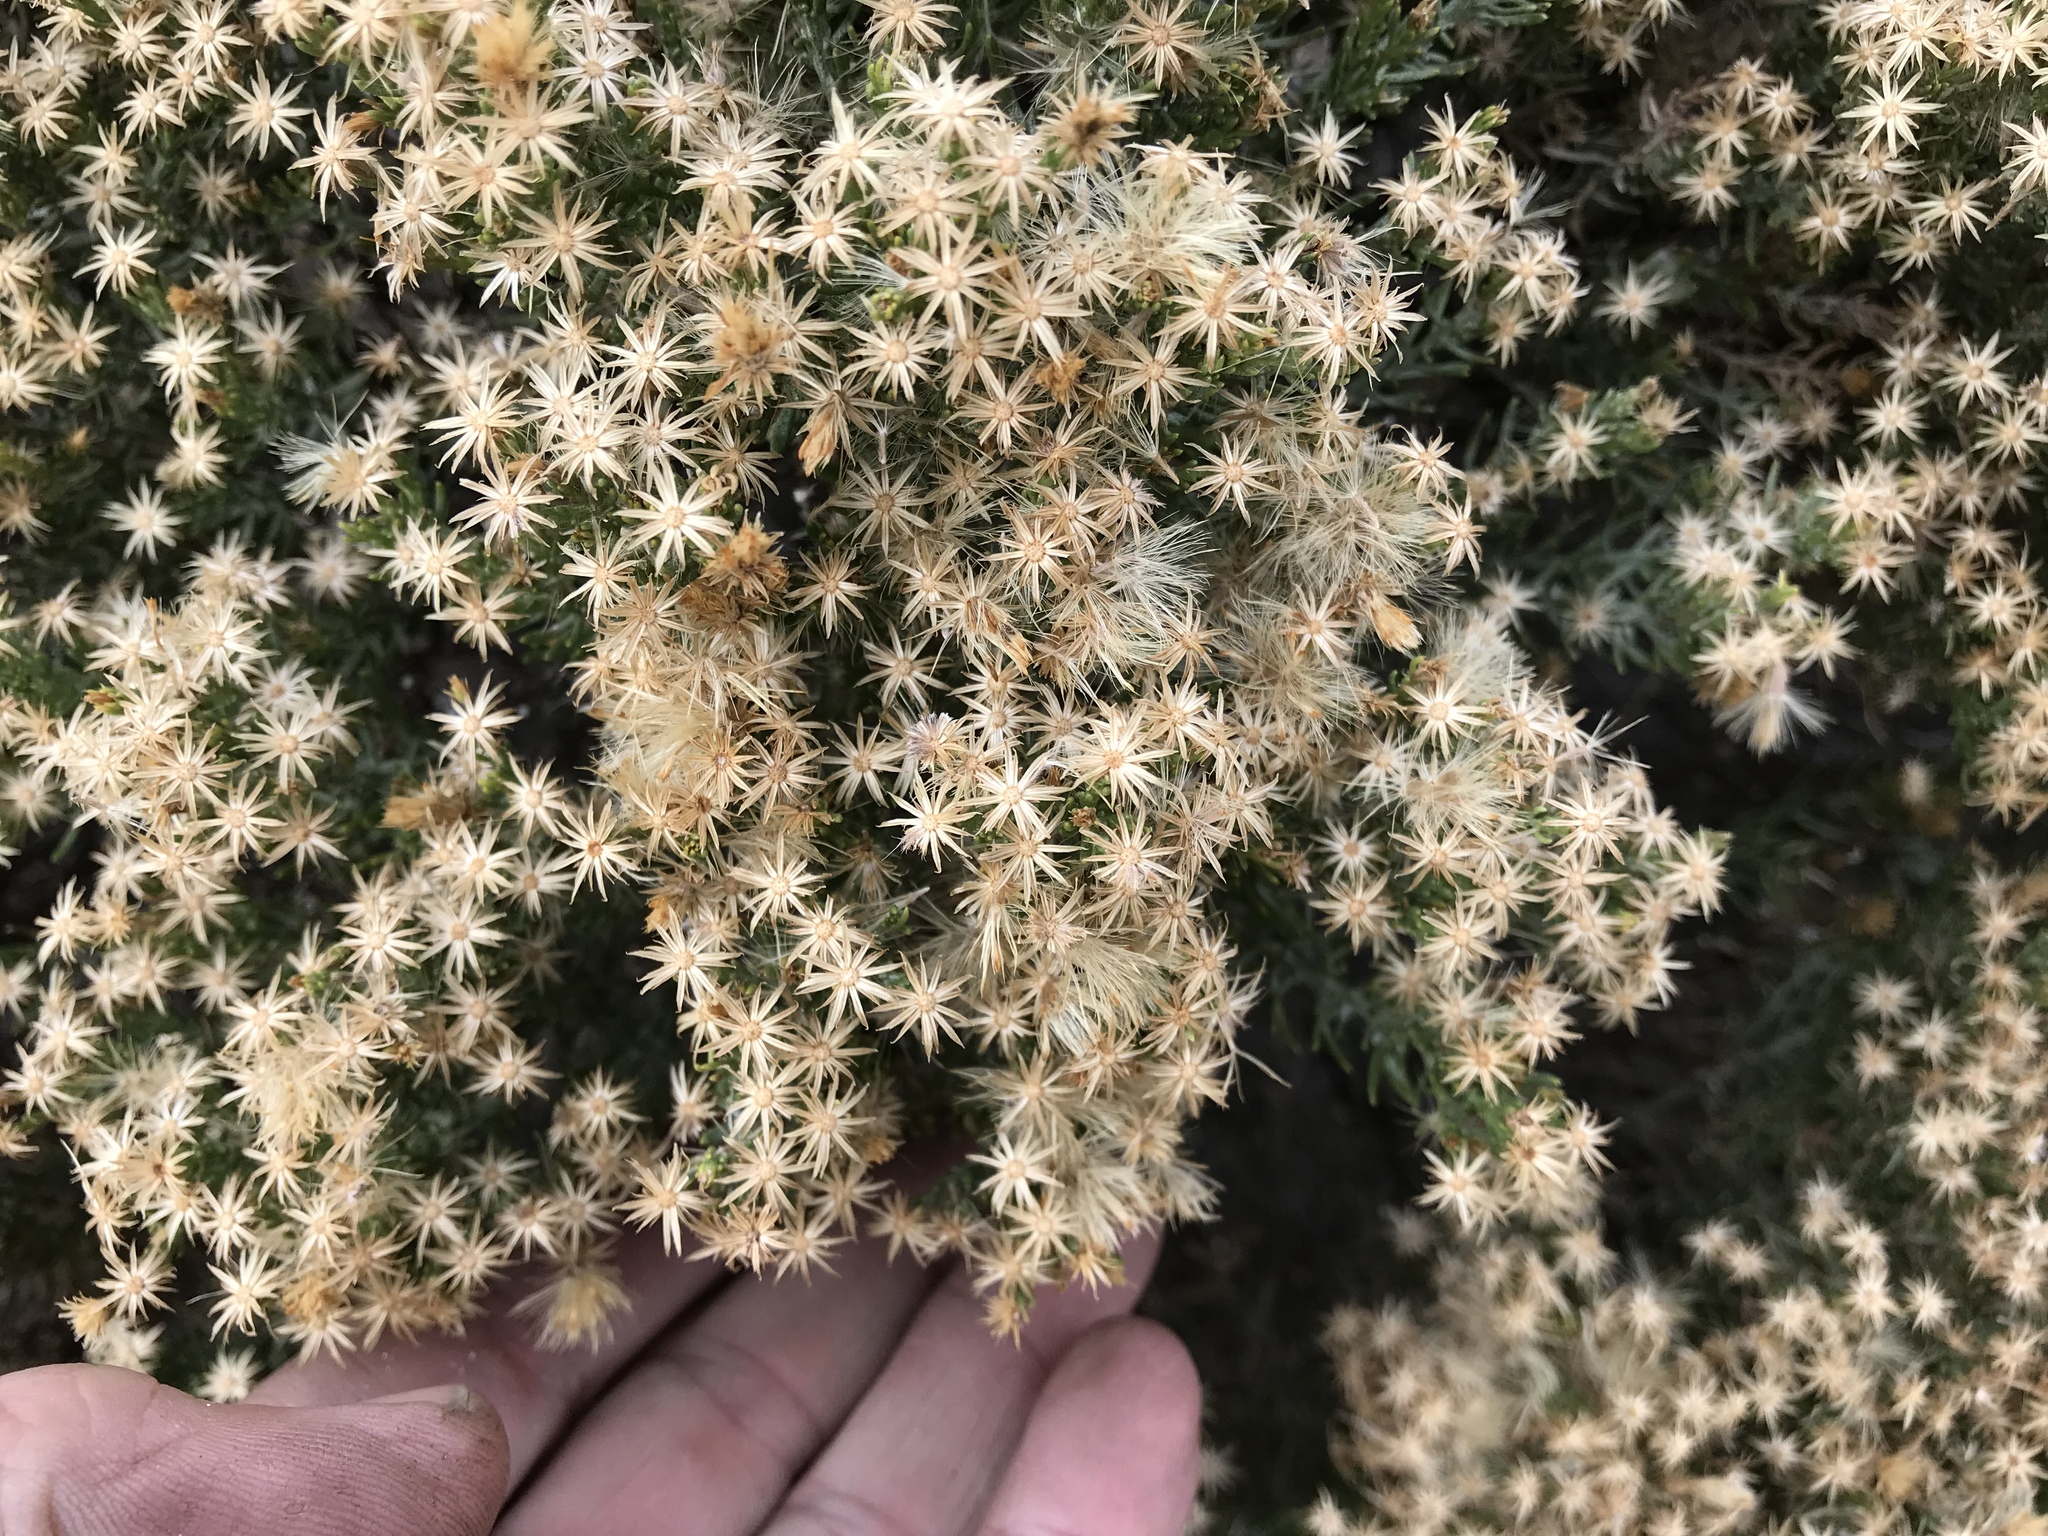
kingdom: Plantae
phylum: Tracheophyta
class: Magnoliopsida
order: Asterales
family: Asteraceae
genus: Ericameria
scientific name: Ericameria laricifolia
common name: Turpentine-bush
